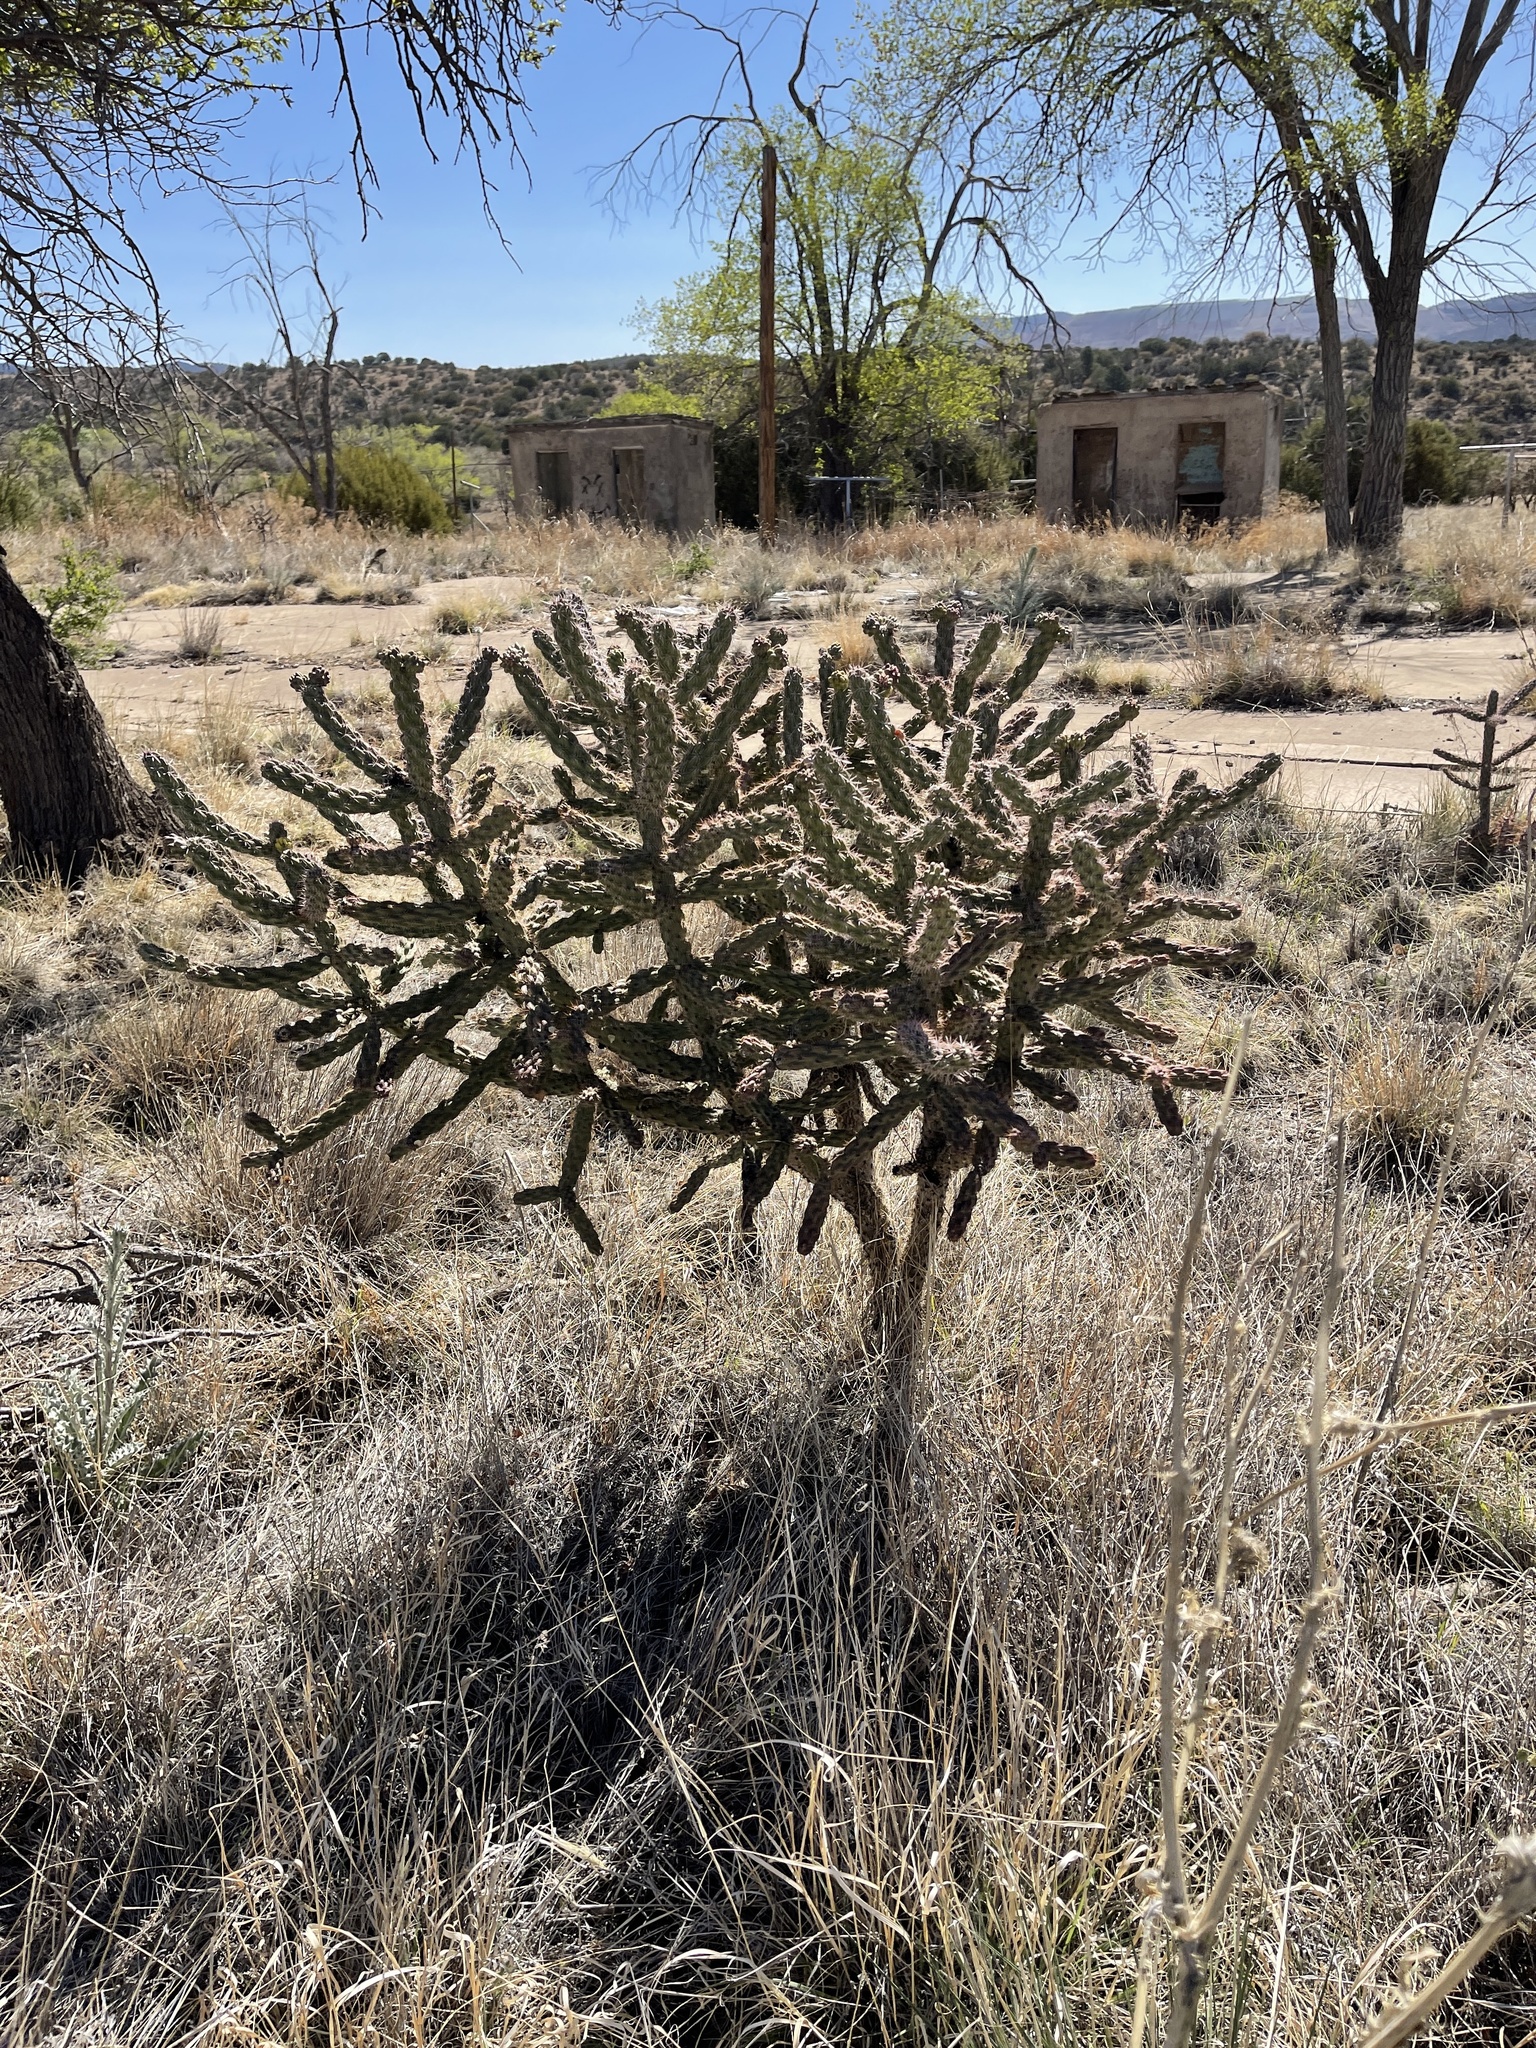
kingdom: Plantae
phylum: Tracheophyta
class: Magnoliopsida
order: Caryophyllales
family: Cactaceae
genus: Cylindropuntia
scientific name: Cylindropuntia imbricata
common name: Candelabrum cactus
